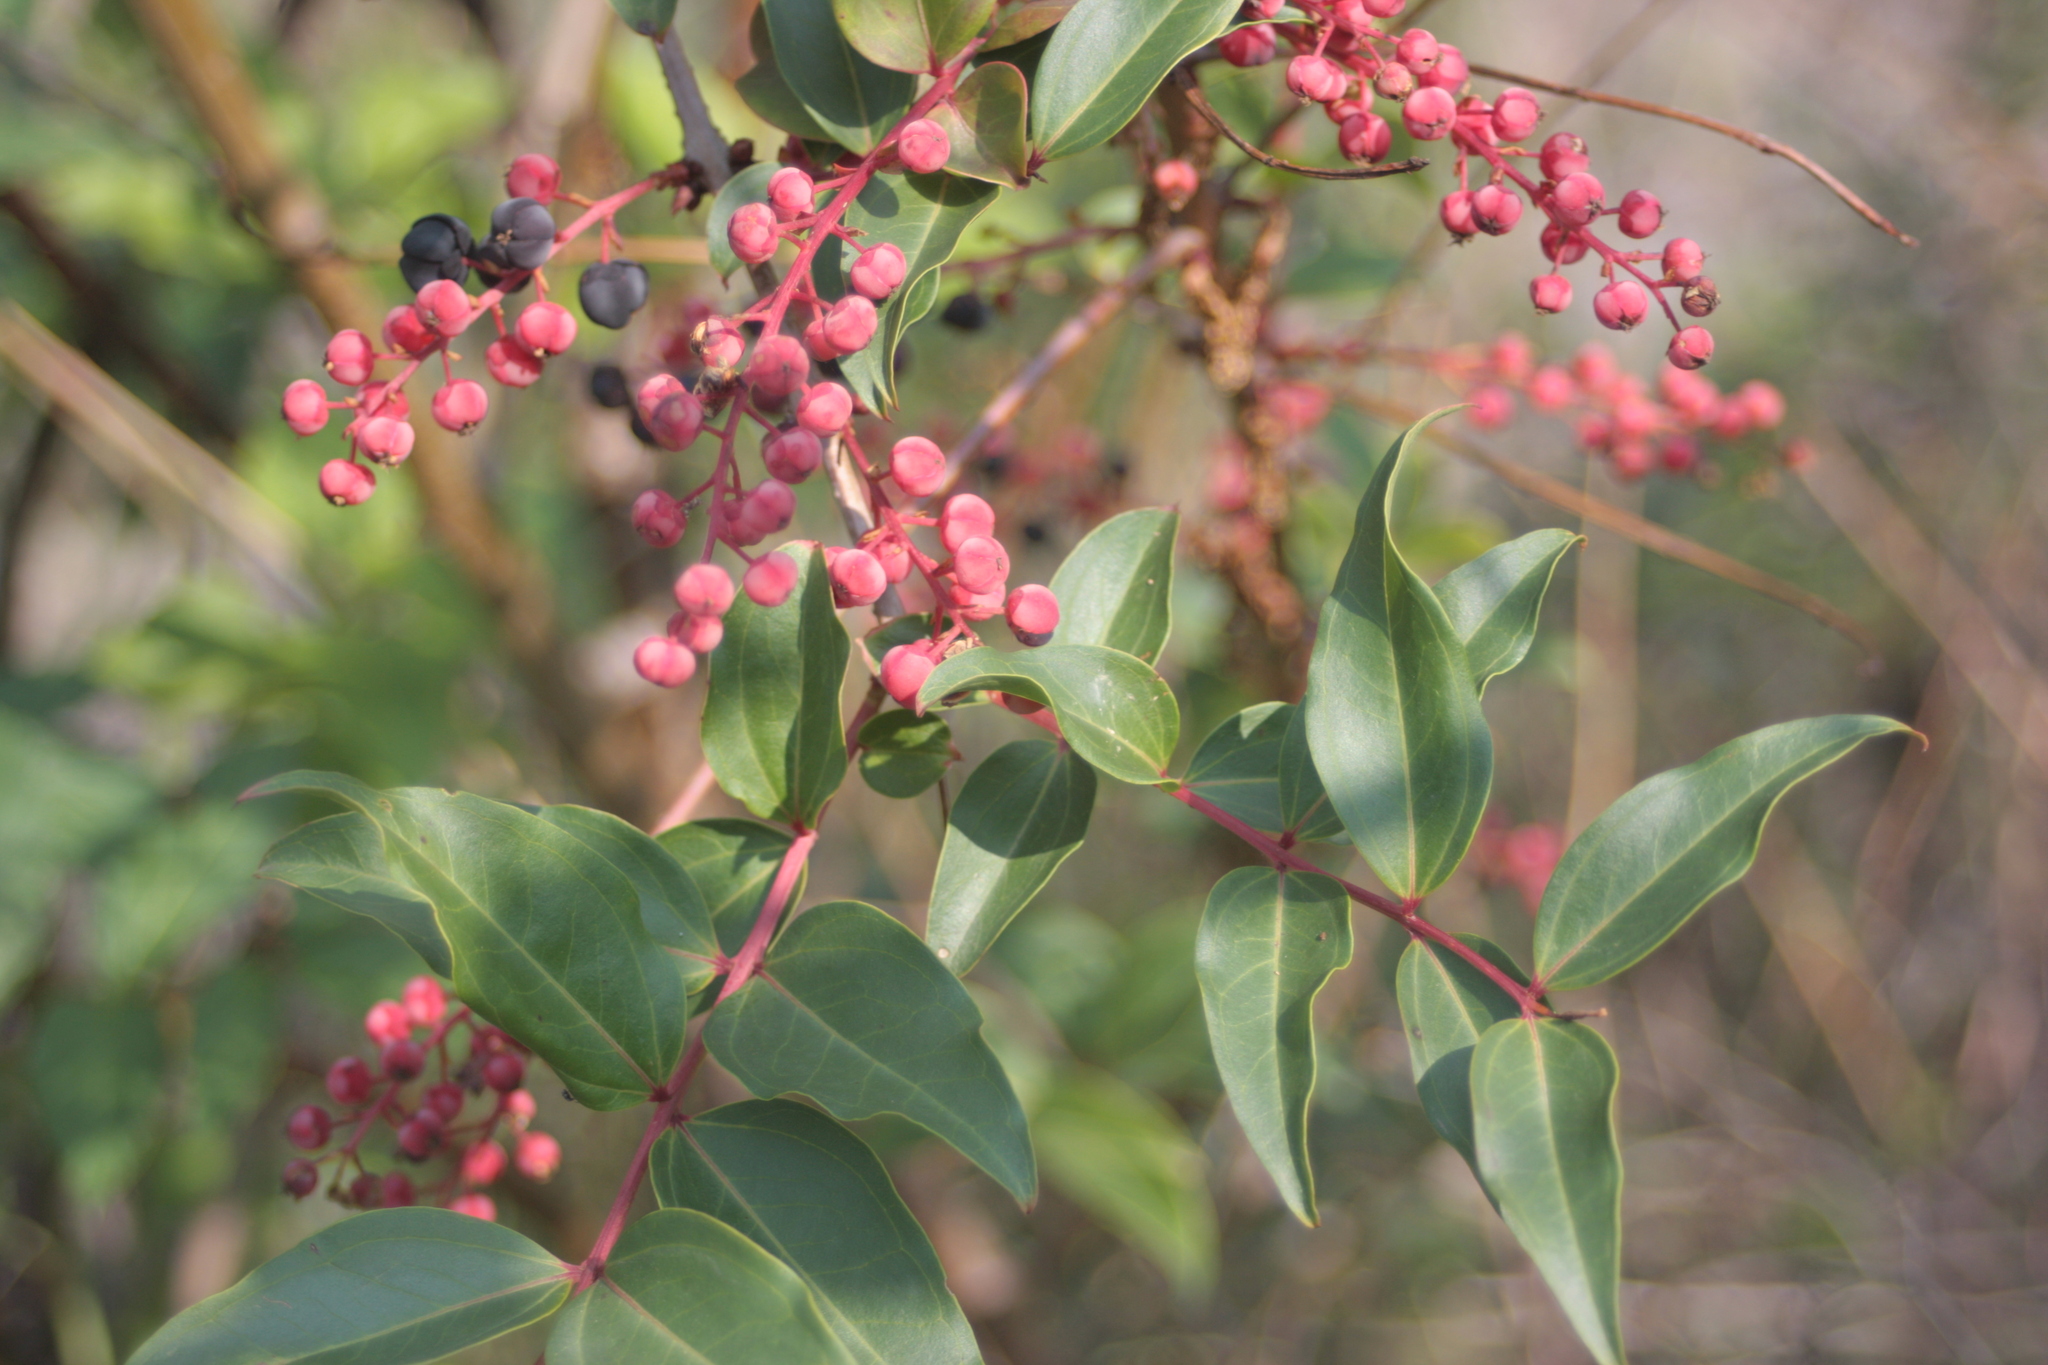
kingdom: Plantae
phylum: Tracheophyta
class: Magnoliopsida
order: Cucurbitales
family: Coriariaceae
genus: Coriaria
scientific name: Coriaria japonica
